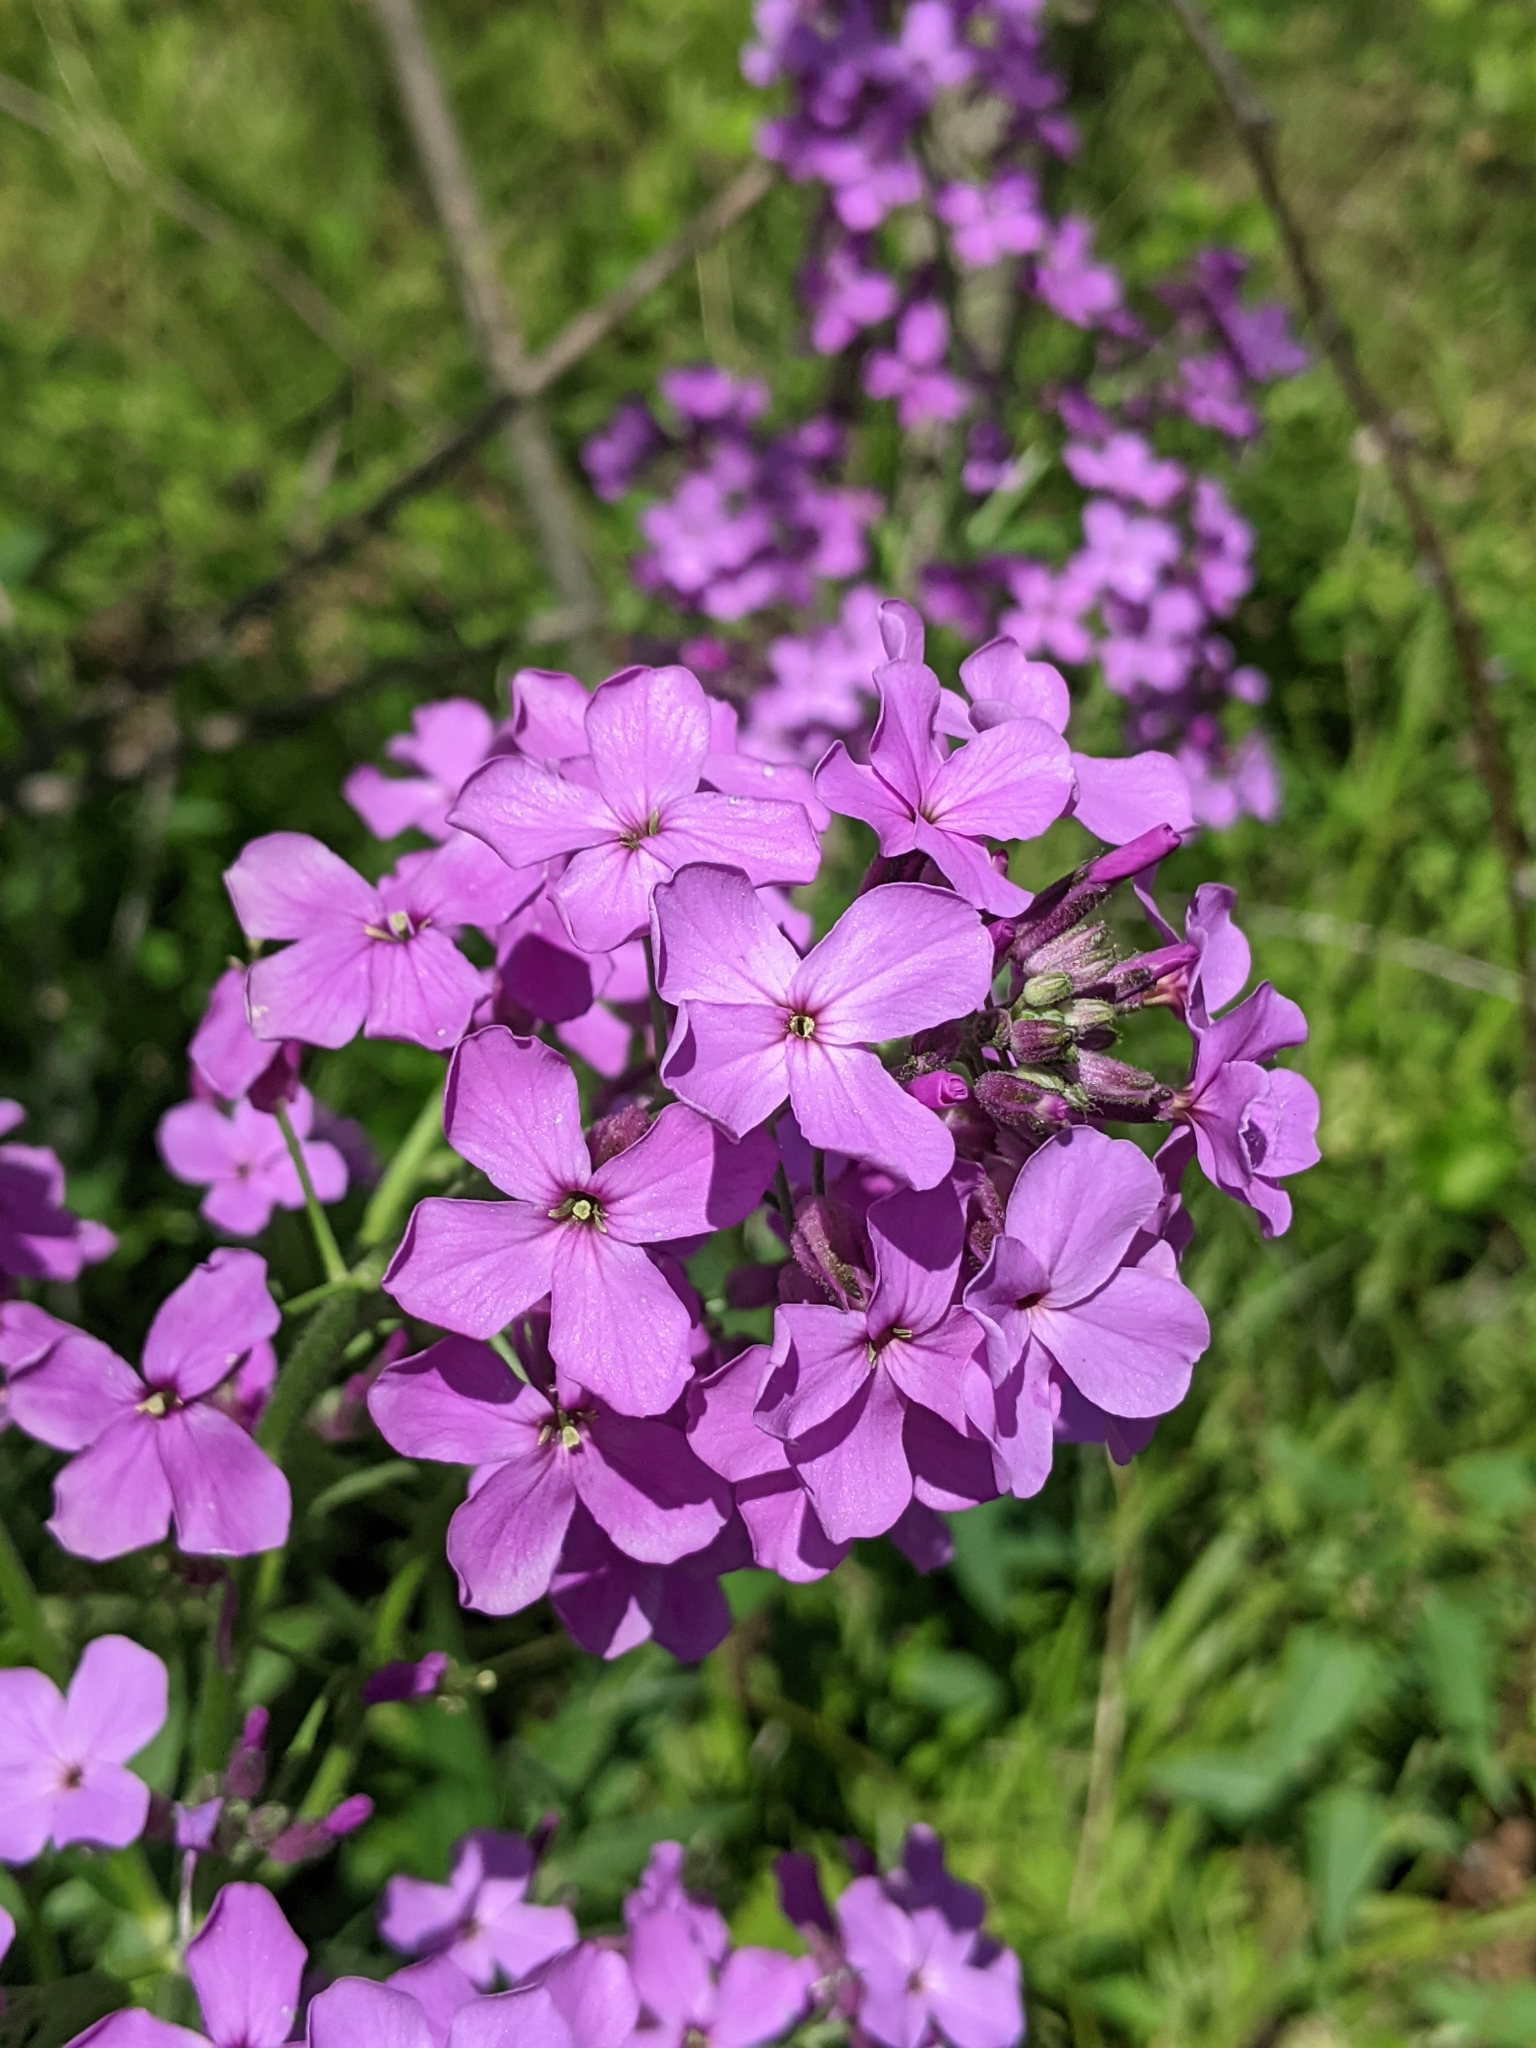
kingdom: Plantae
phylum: Tracheophyta
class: Magnoliopsida
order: Brassicales
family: Brassicaceae
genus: Hesperis
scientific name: Hesperis matronalis
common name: Dame's-violet
